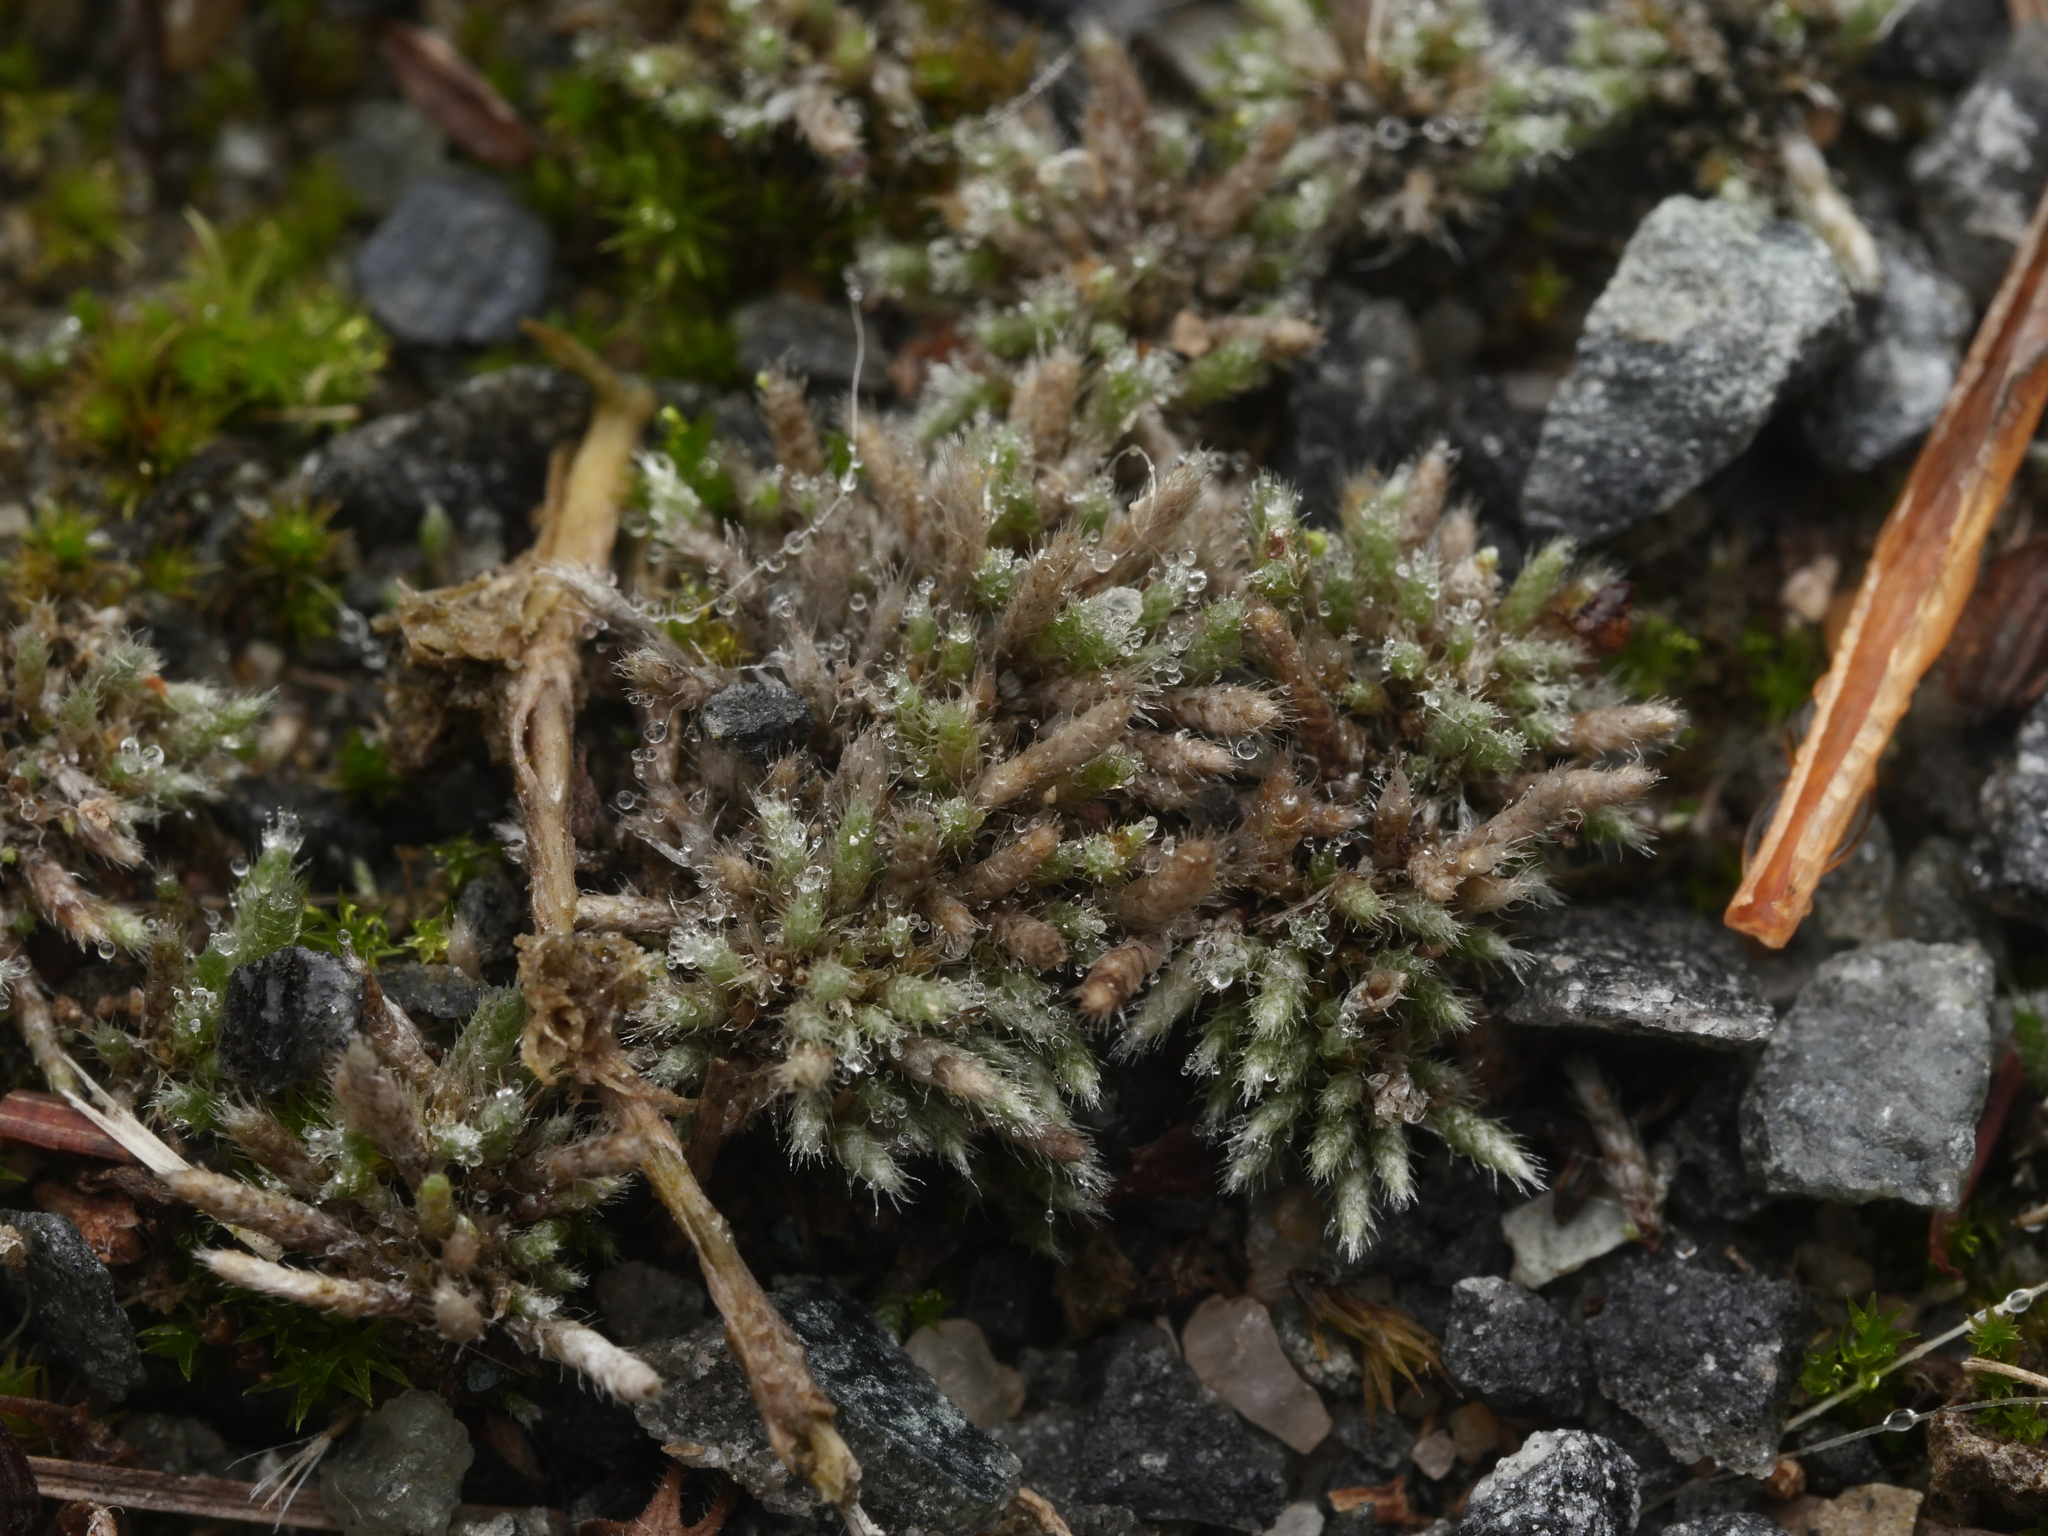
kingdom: Plantae
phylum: Bryophyta
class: Bryopsida
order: Bryales
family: Bryaceae
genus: Bryum
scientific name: Bryum argenteum
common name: Silver-moss
